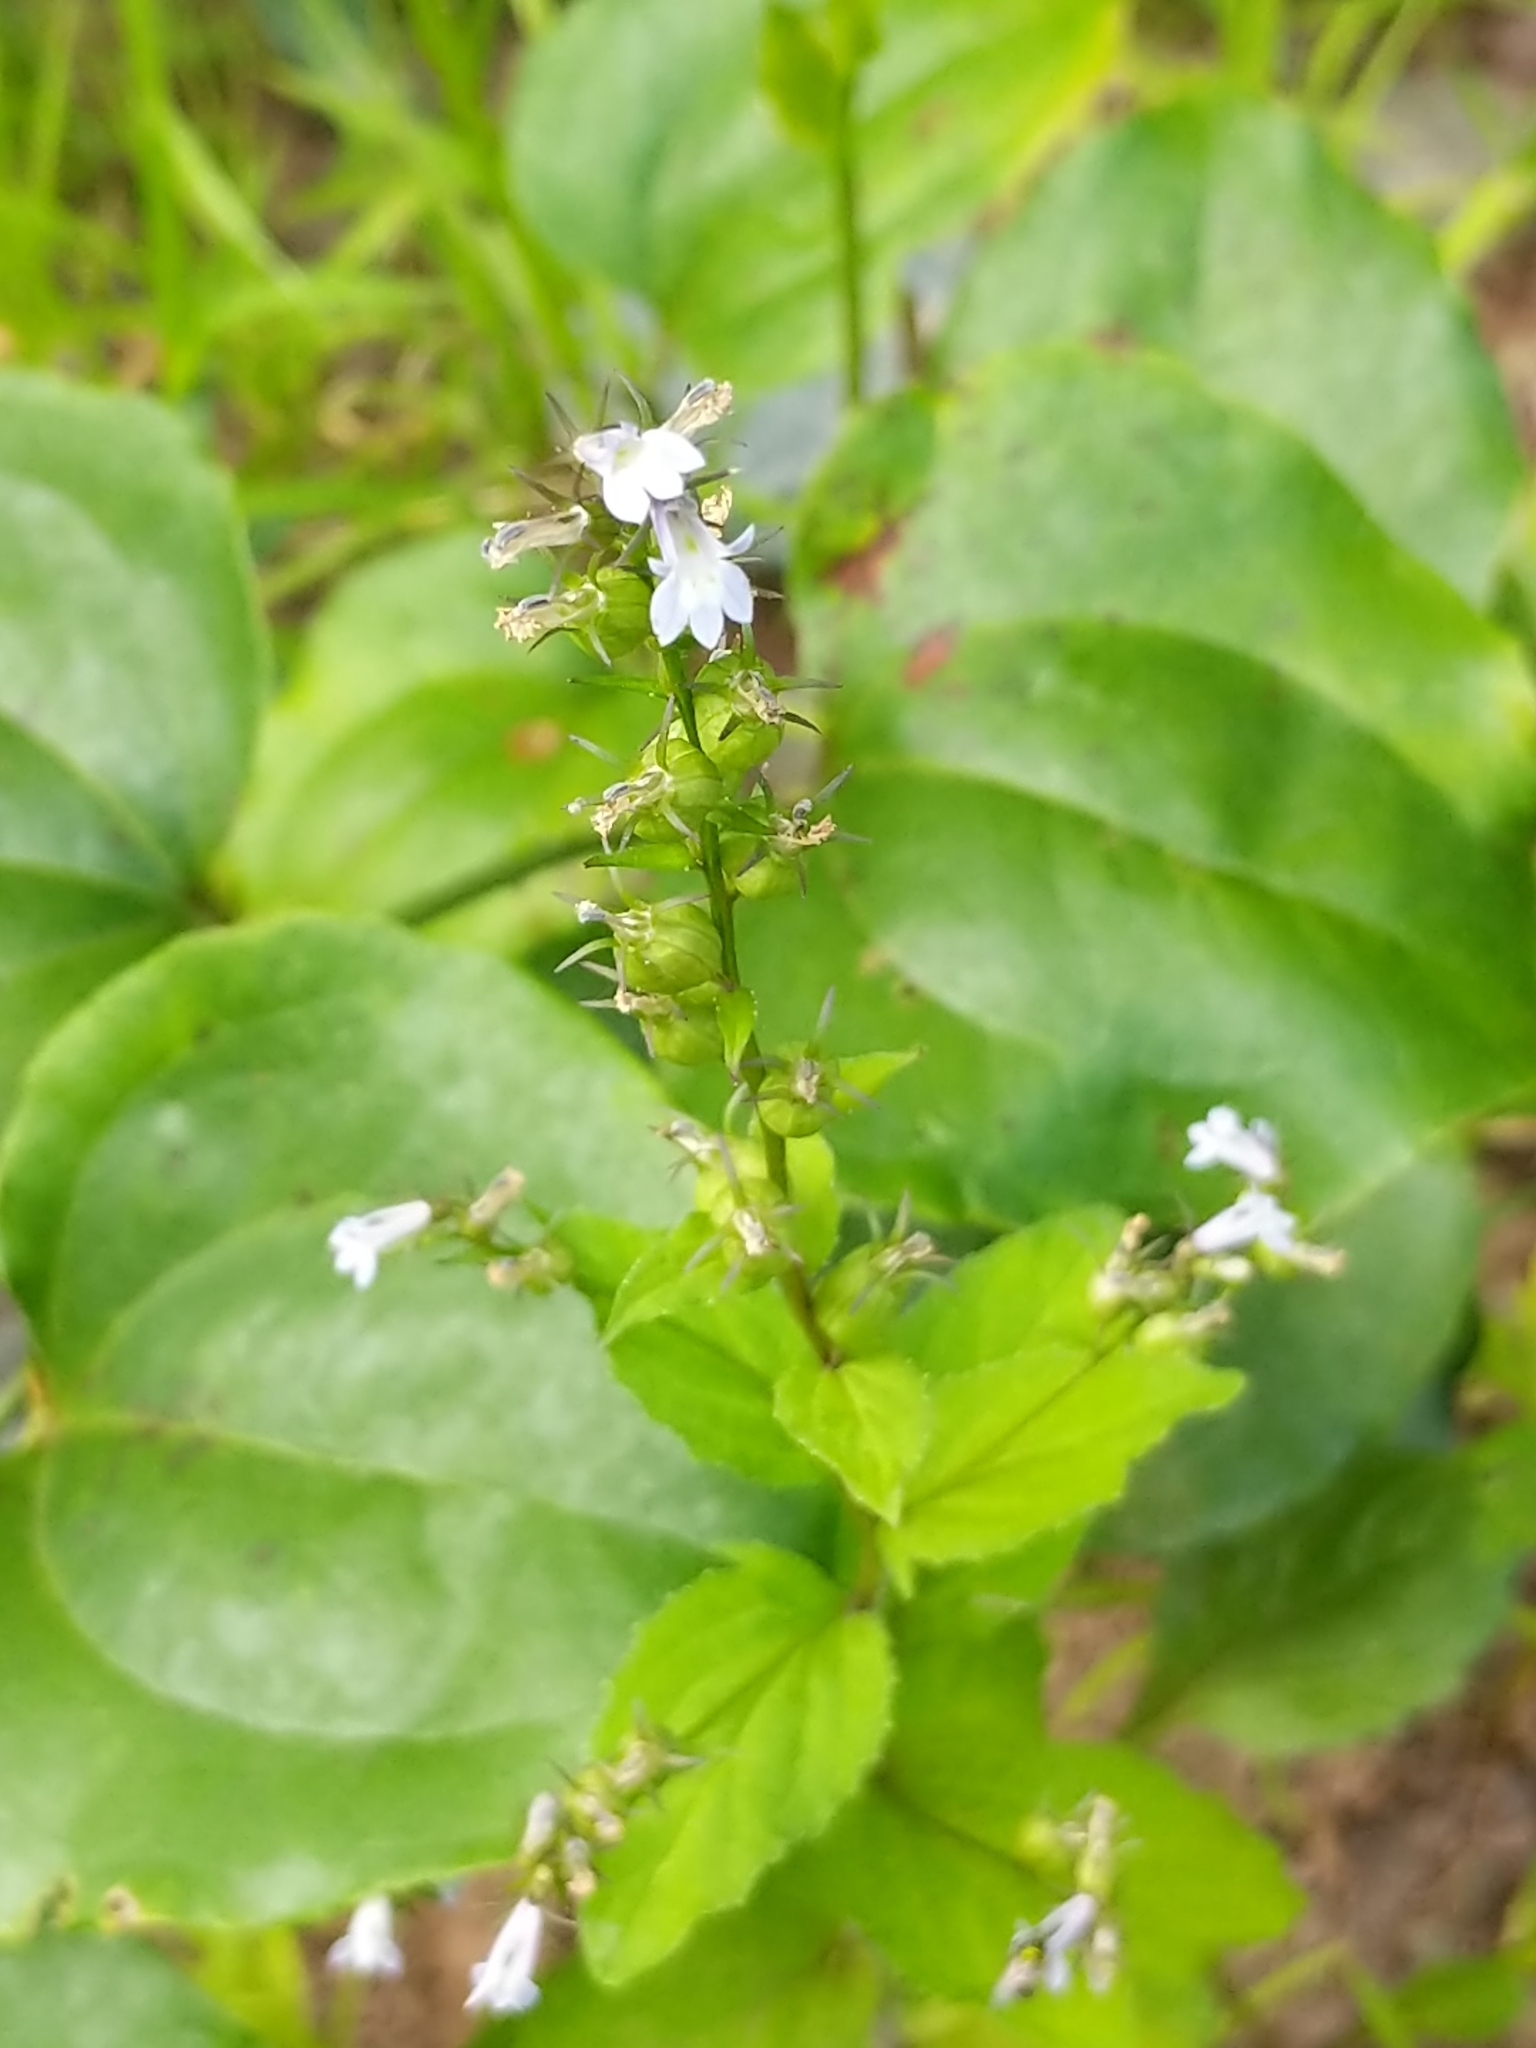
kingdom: Plantae
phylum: Tracheophyta
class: Magnoliopsida
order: Asterales
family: Campanulaceae
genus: Lobelia
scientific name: Lobelia inflata
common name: Indian tobacco
